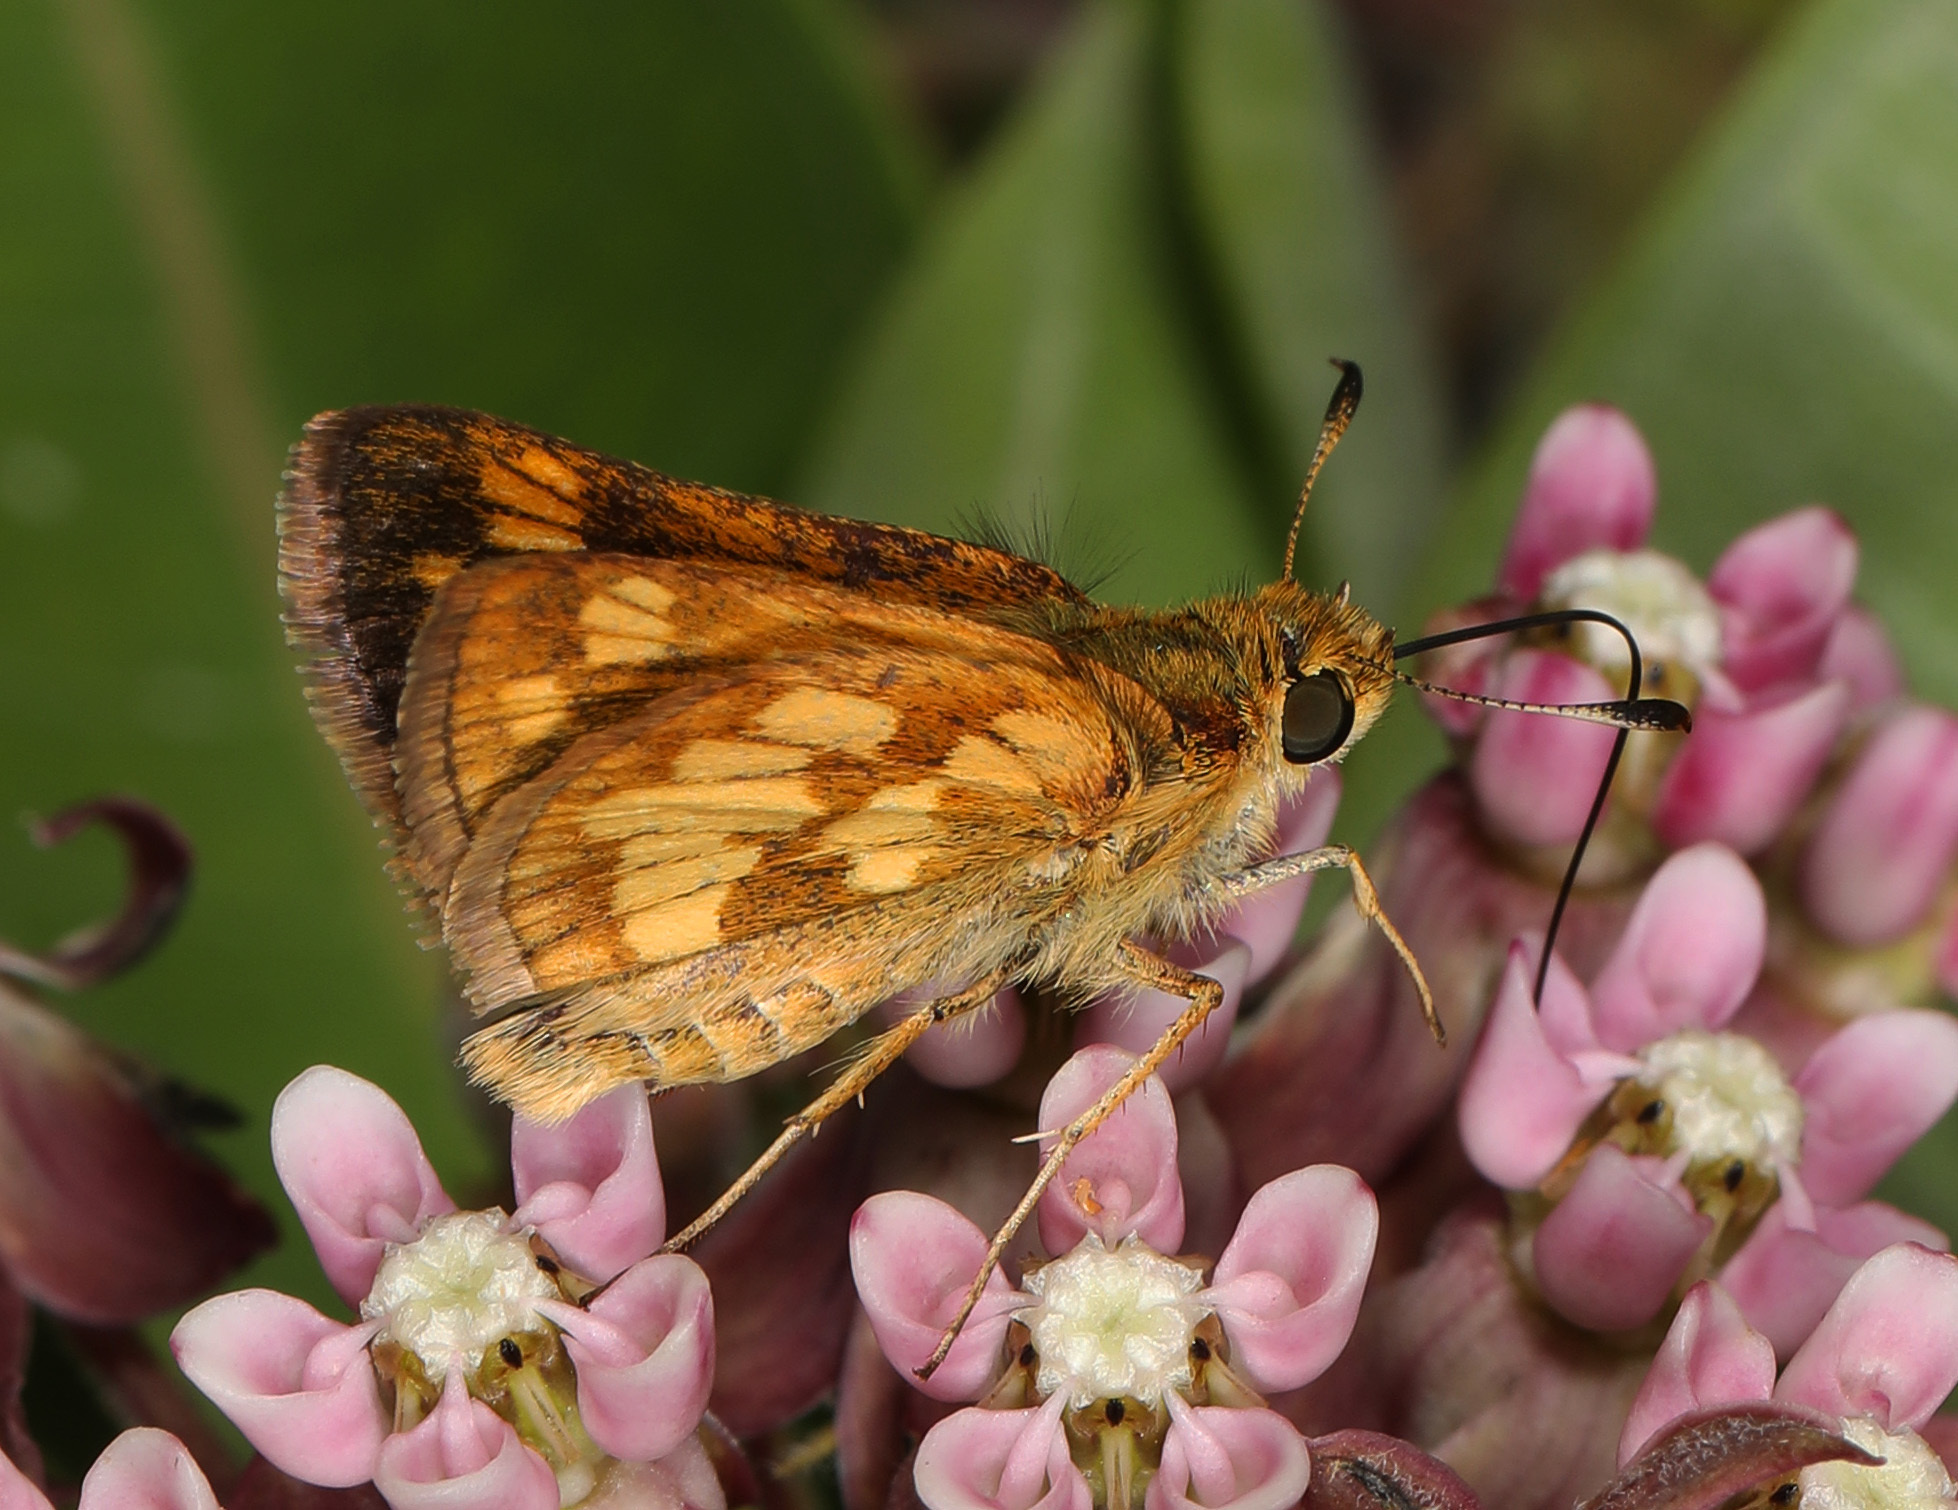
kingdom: Animalia
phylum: Arthropoda
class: Insecta
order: Lepidoptera
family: Hesperiidae
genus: Polites
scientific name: Polites coras
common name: Peck's skipper
